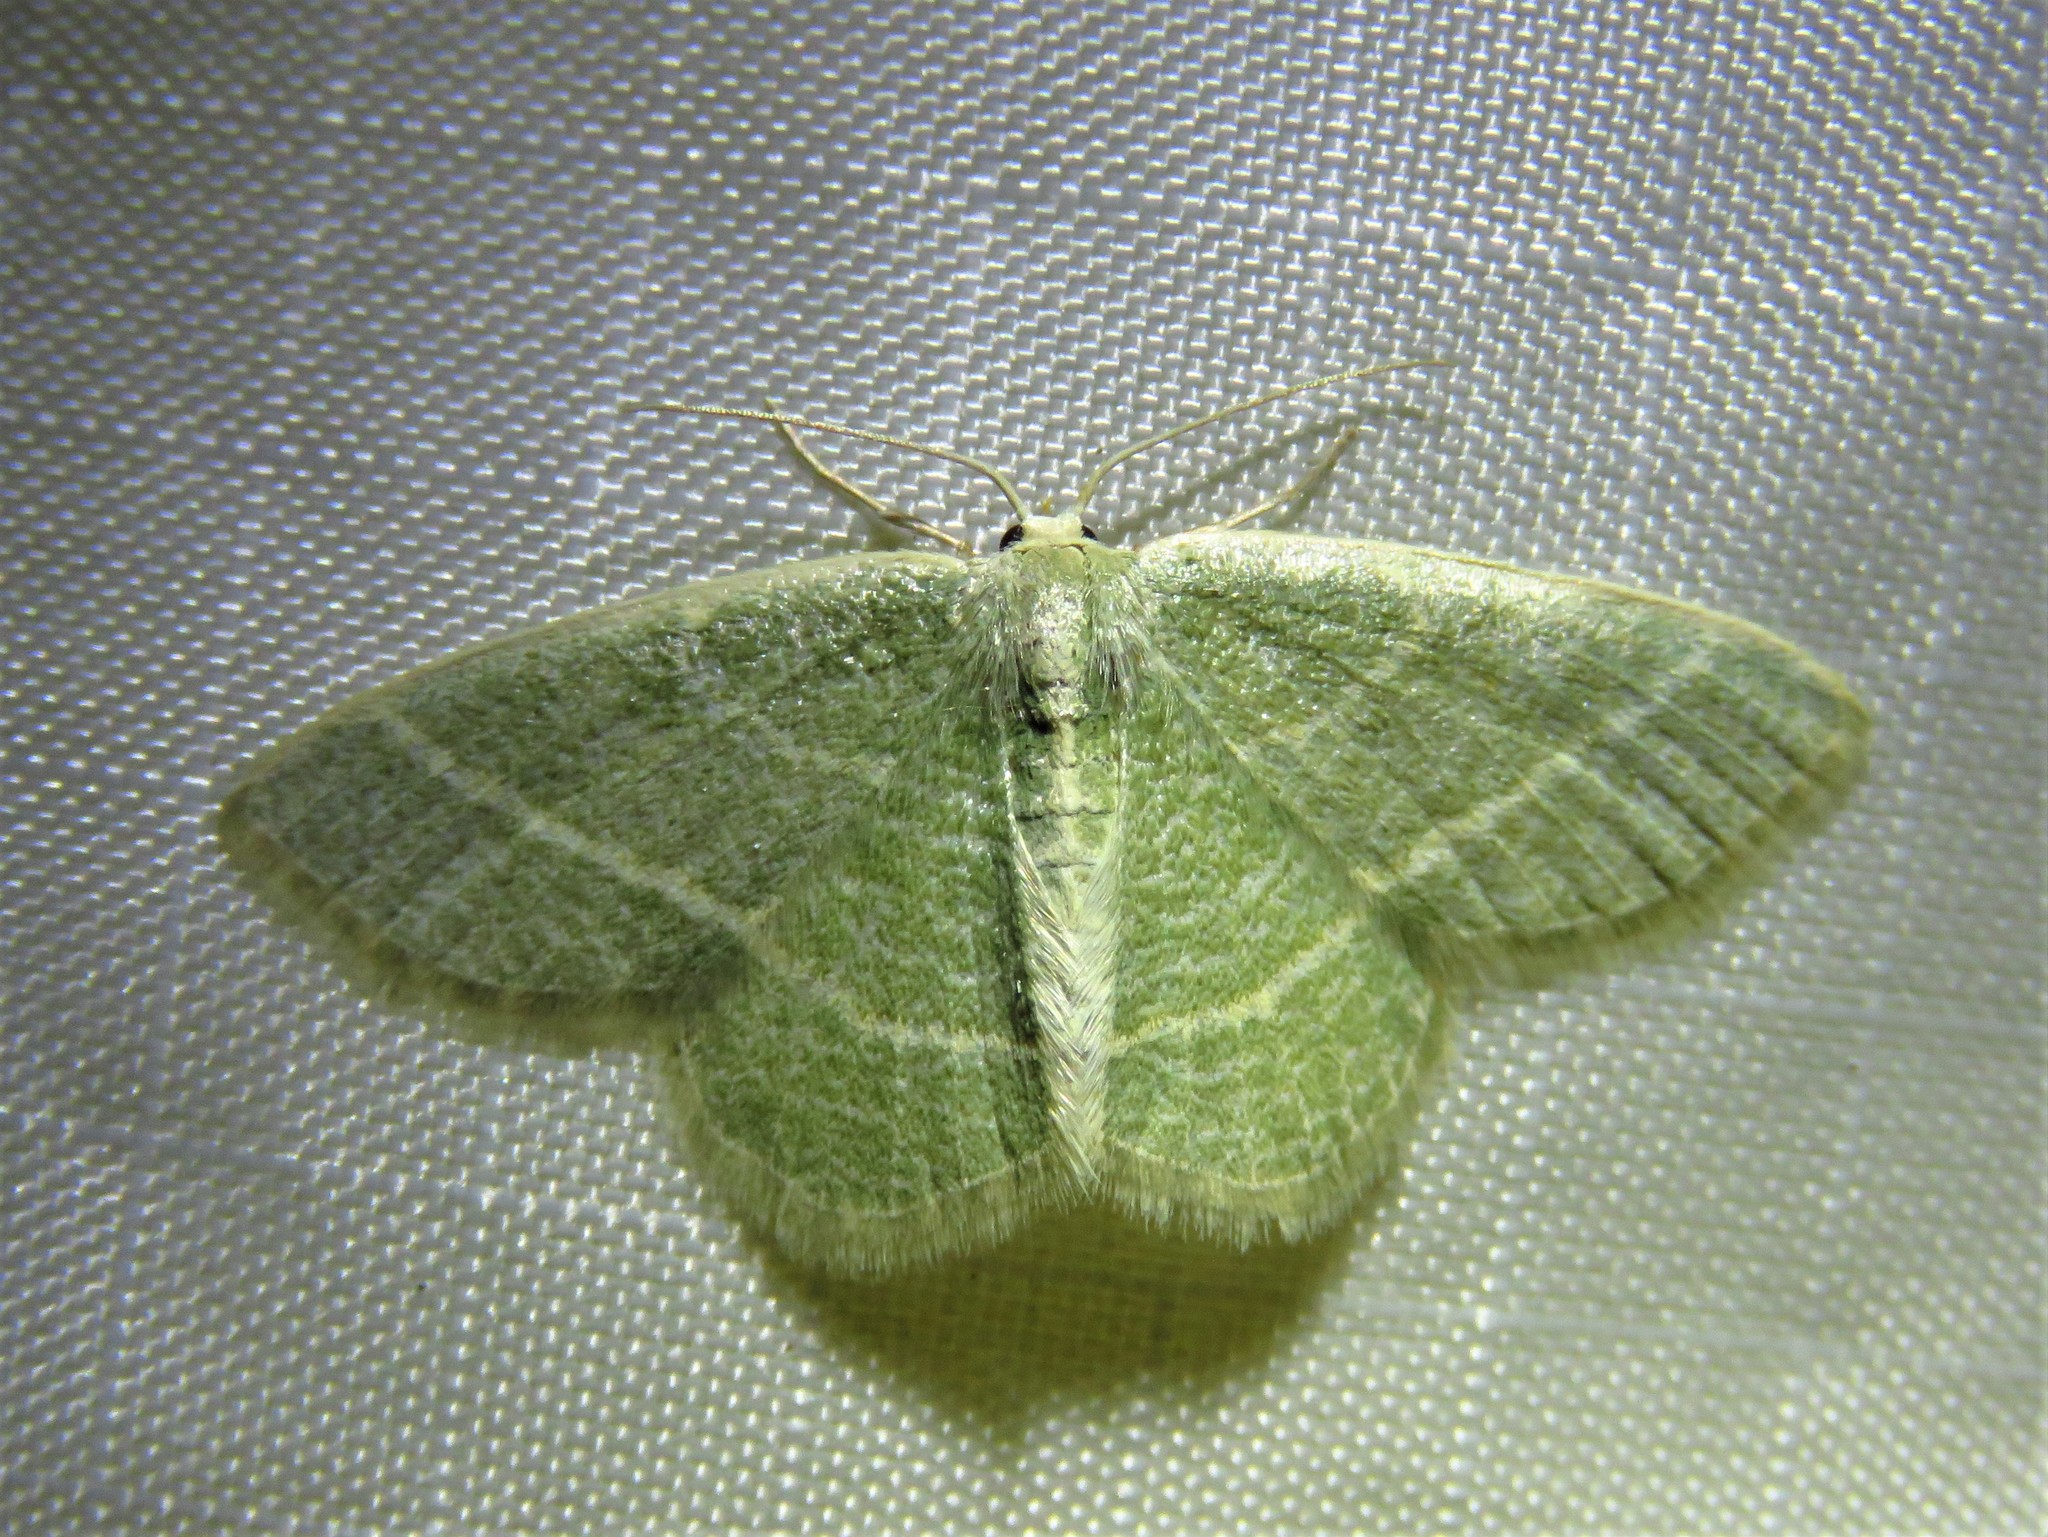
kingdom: Animalia
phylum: Arthropoda
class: Insecta
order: Lepidoptera
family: Geometridae
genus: Chlorochlamys
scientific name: Chlorochlamys chloroleucaria
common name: Blackberry looper
